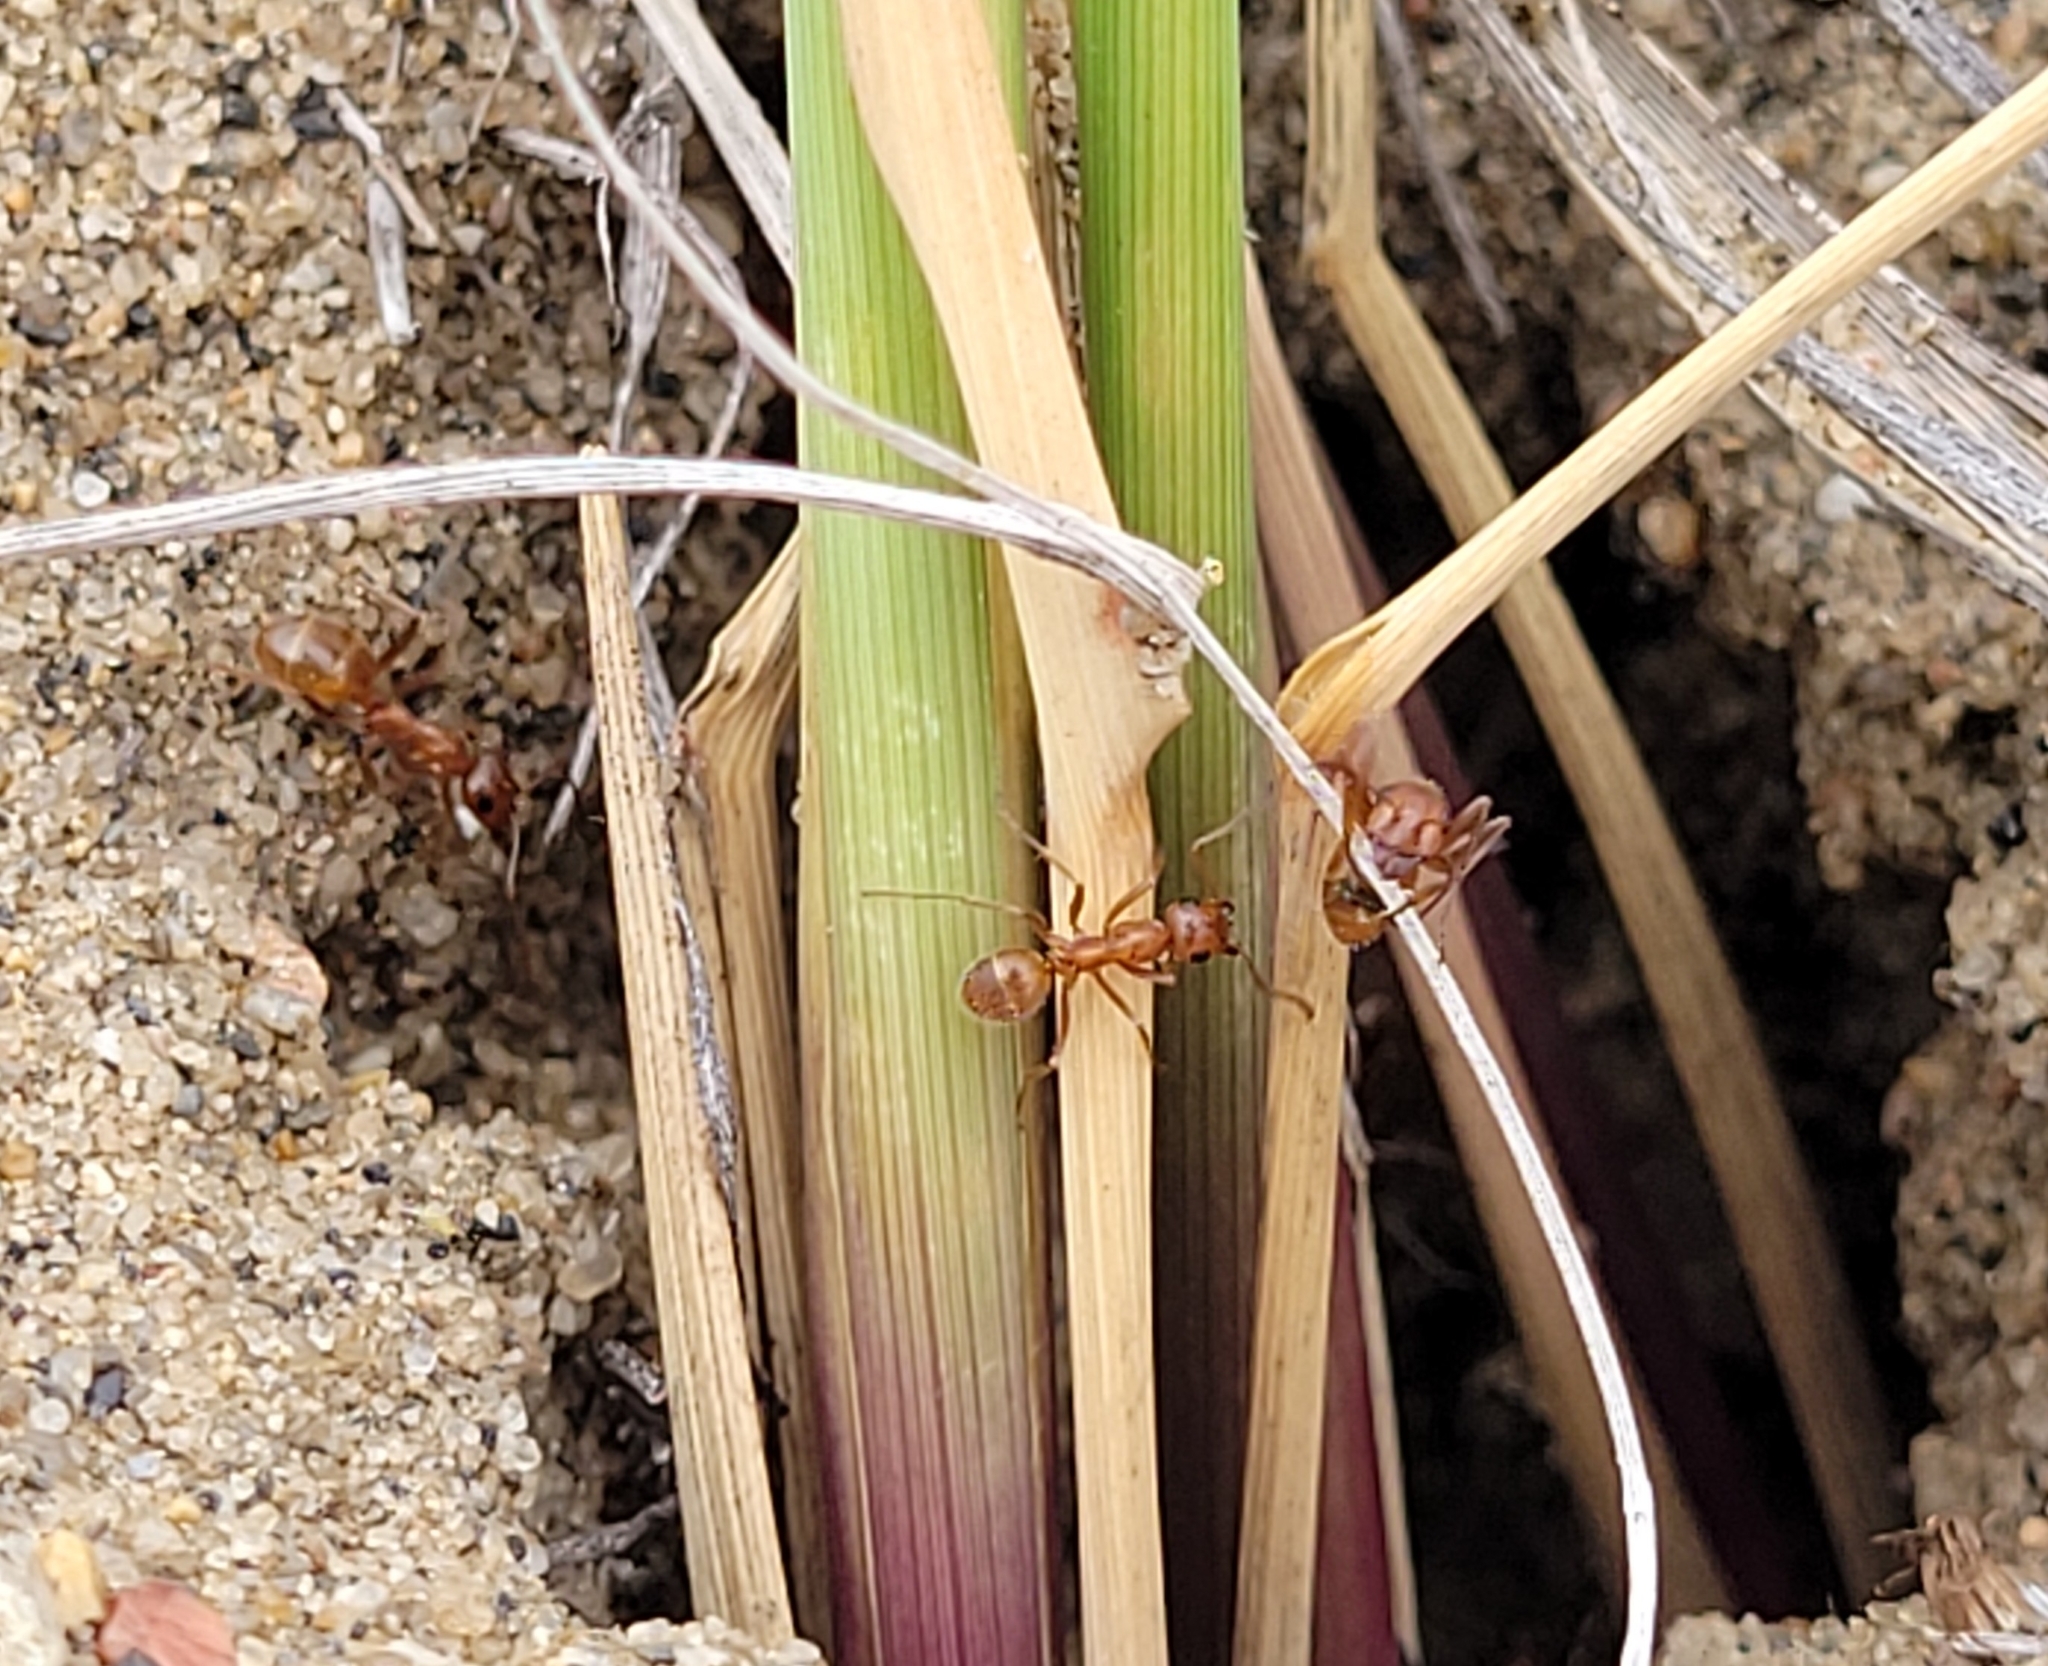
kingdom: Animalia
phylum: Arthropoda
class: Insecta
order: Hymenoptera
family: Formicidae
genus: Formica
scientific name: Formica bradleyi
